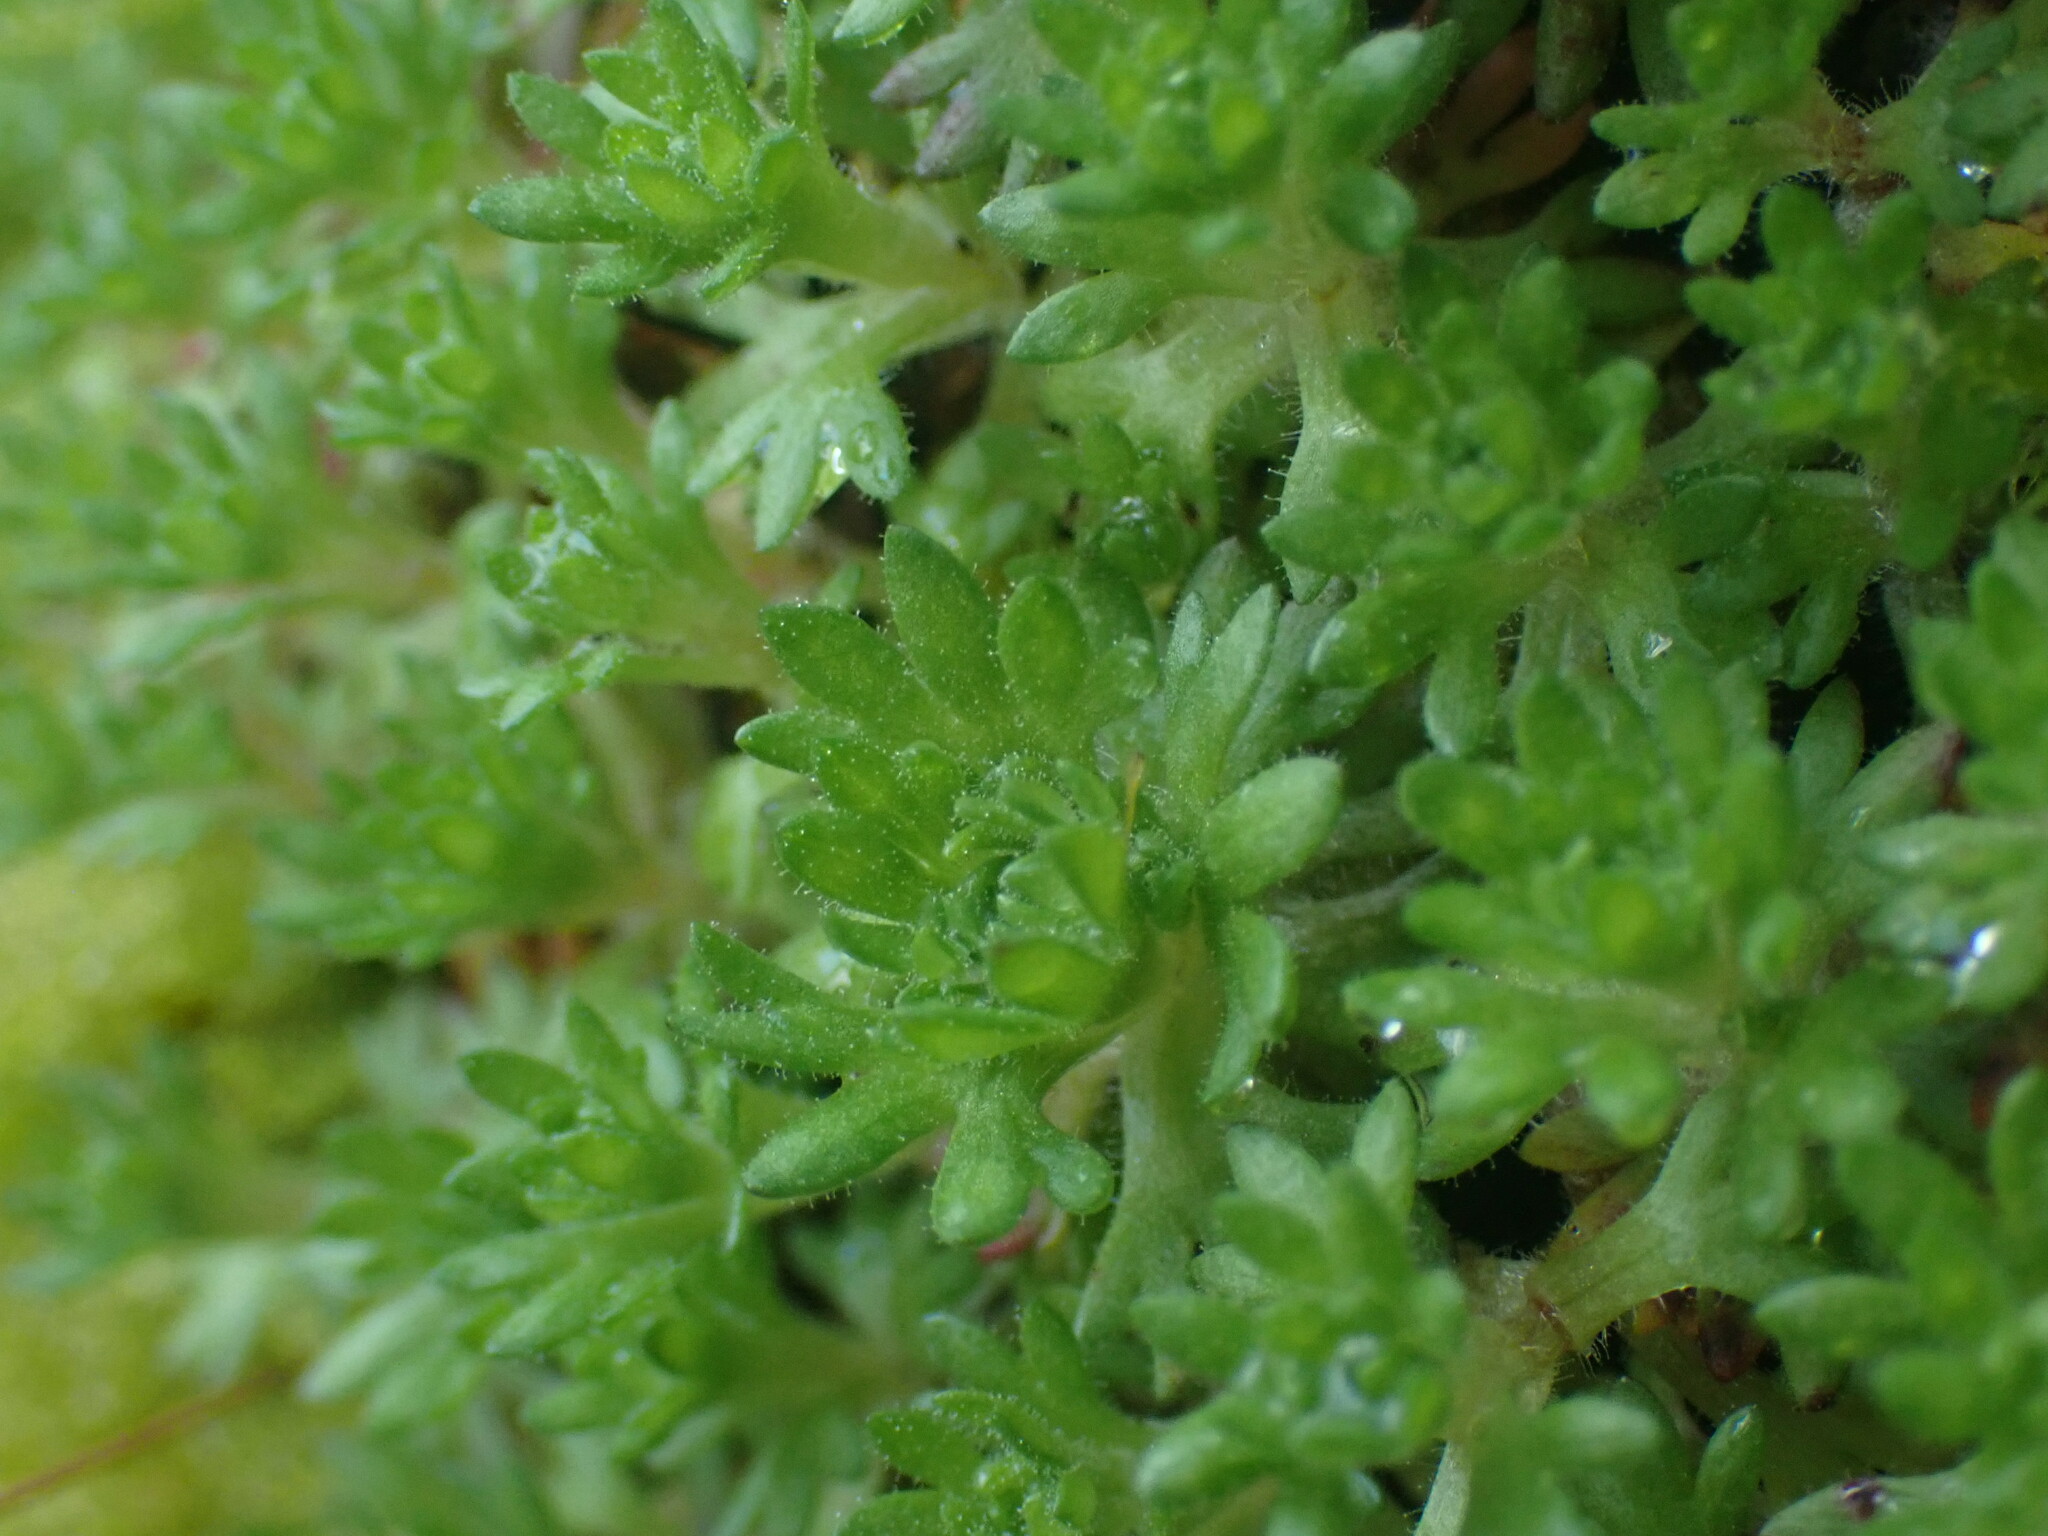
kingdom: Plantae
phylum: Tracheophyta
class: Magnoliopsida
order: Saxifragales
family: Saxifragaceae
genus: Saxifraga
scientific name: Saxifraga cespitosa
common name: Tufted saxifrage
